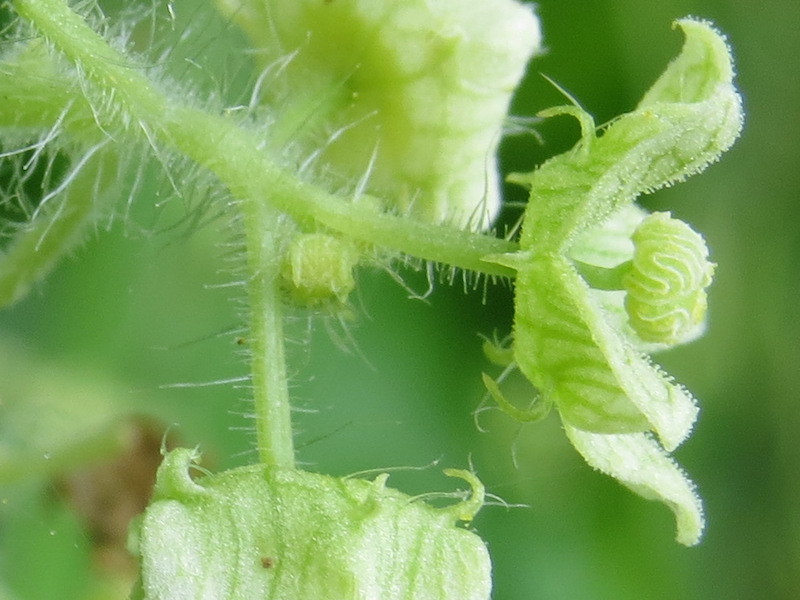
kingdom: Plantae
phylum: Tracheophyta
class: Magnoliopsida
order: Cucurbitales
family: Cucurbitaceae
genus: Sicyos
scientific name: Sicyos angulatus
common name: Angled burr cucumber
